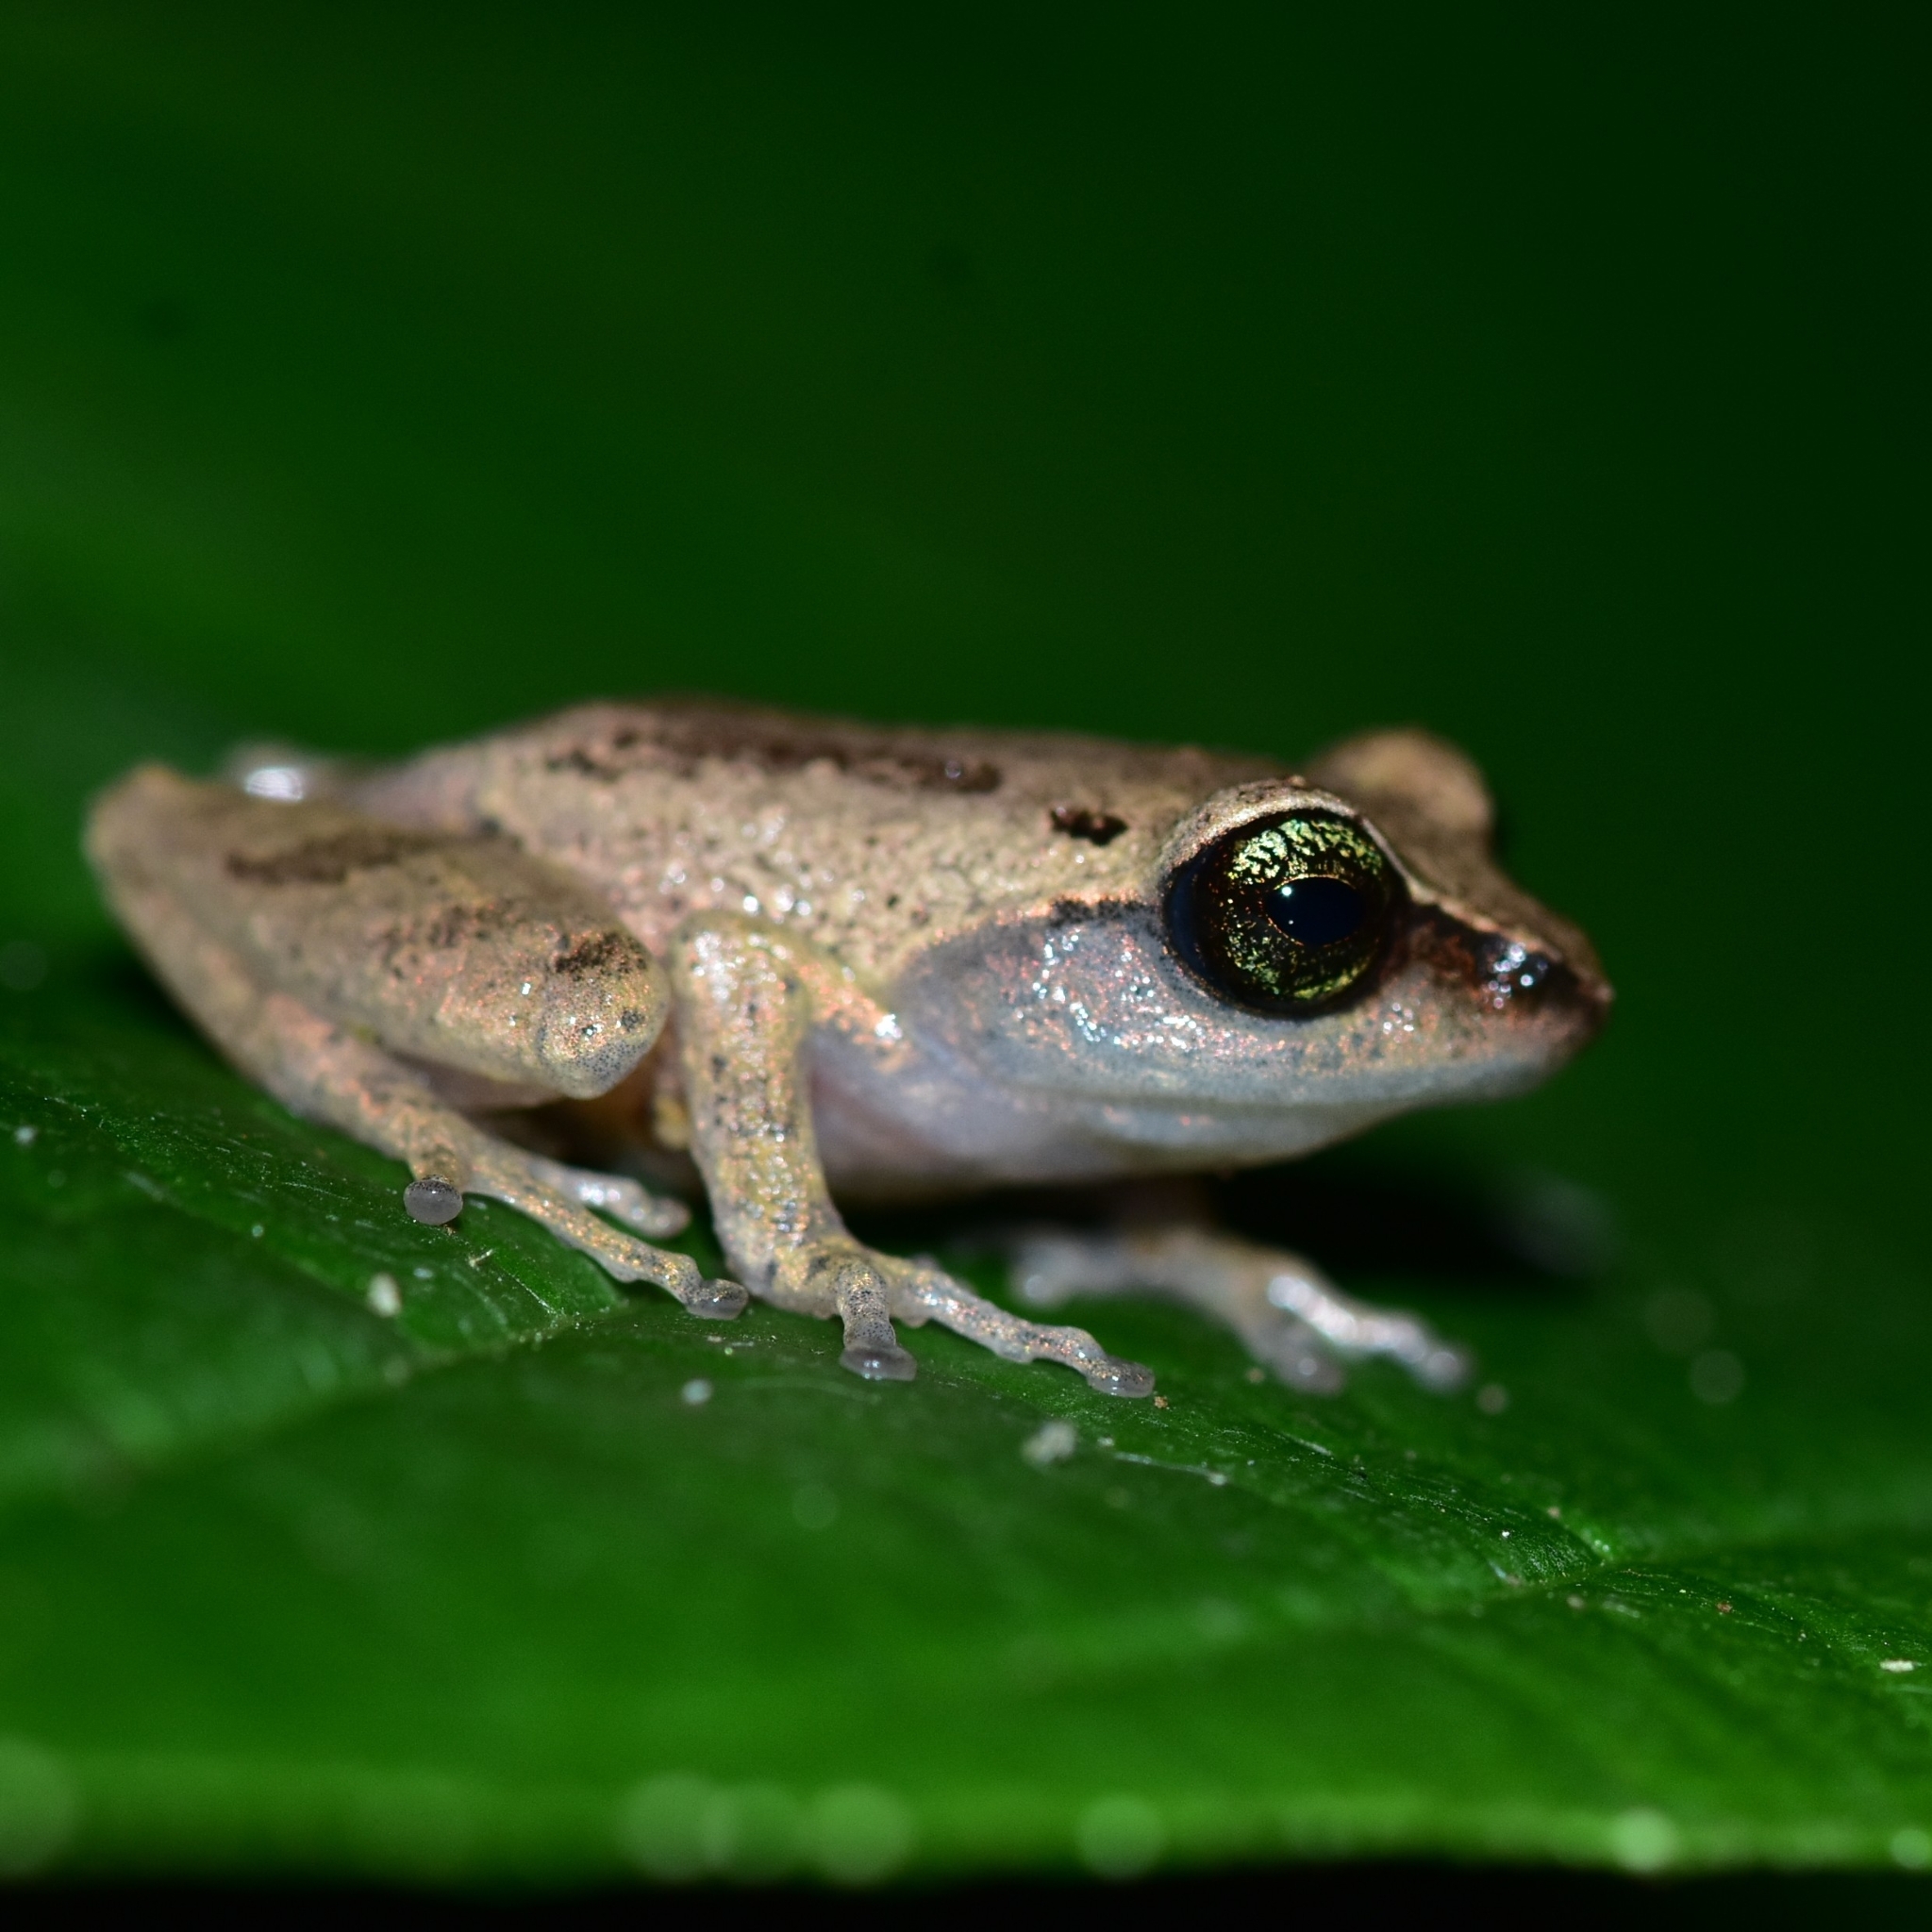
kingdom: Animalia
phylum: Chordata
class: Amphibia
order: Anura
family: Rhacophoridae
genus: Raorchestes
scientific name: Raorchestes chlorosomma
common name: Green eyed bushfrog
